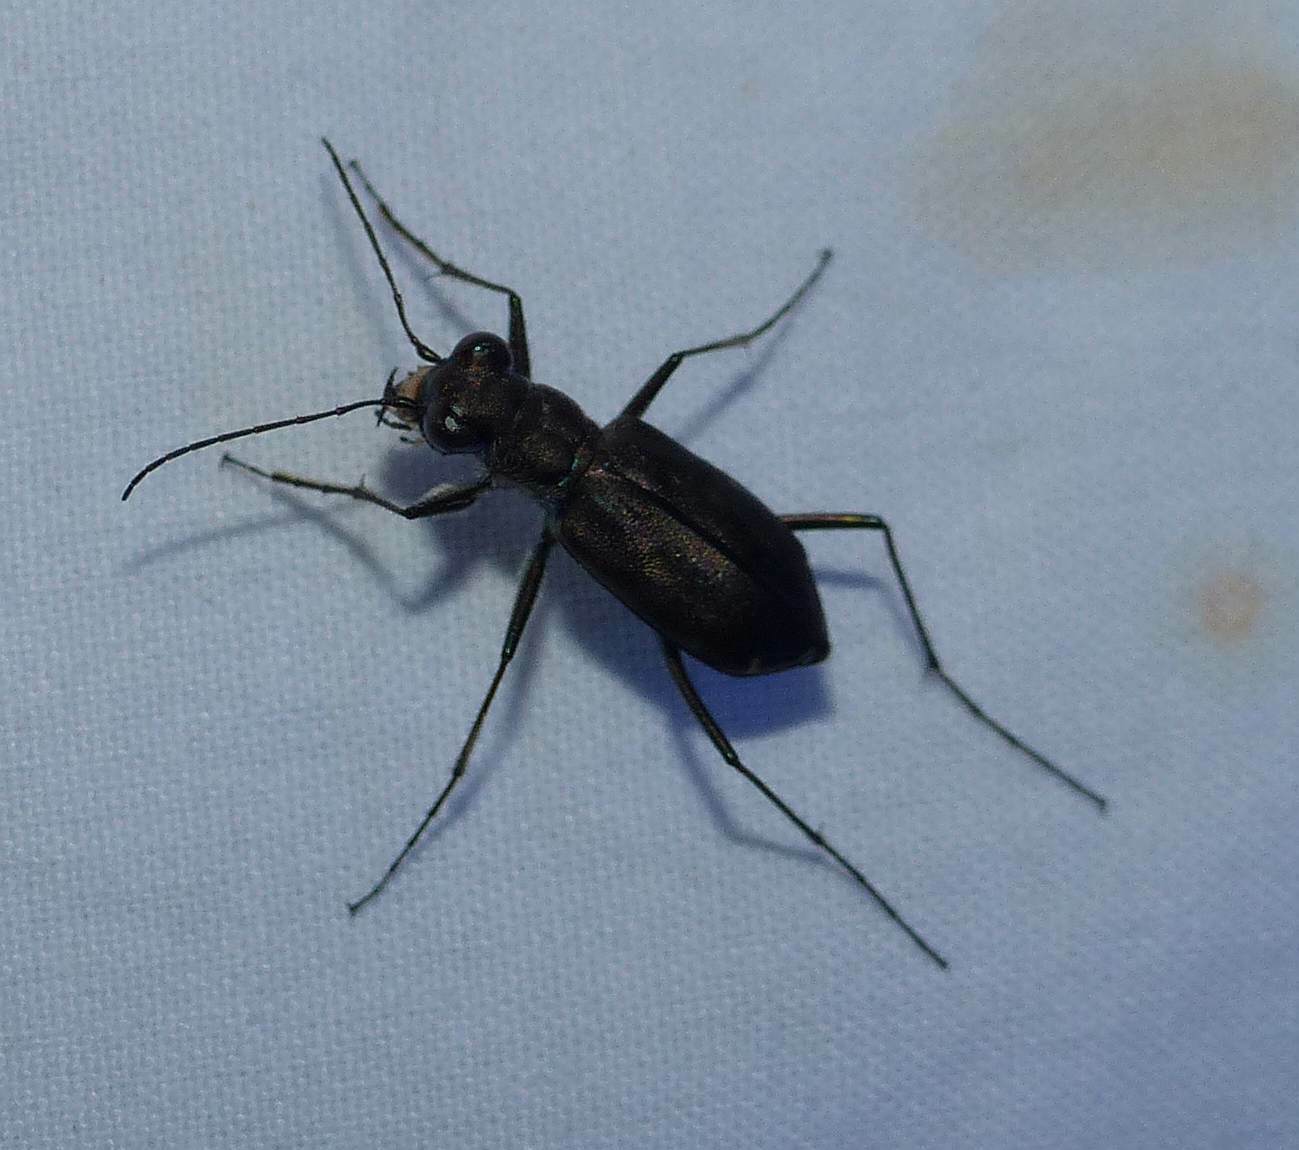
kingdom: Animalia
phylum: Arthropoda
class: Insecta
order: Coleoptera
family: Carabidae
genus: Cicindela
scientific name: Cicindela punctulata
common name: Punctured tiger beetle
